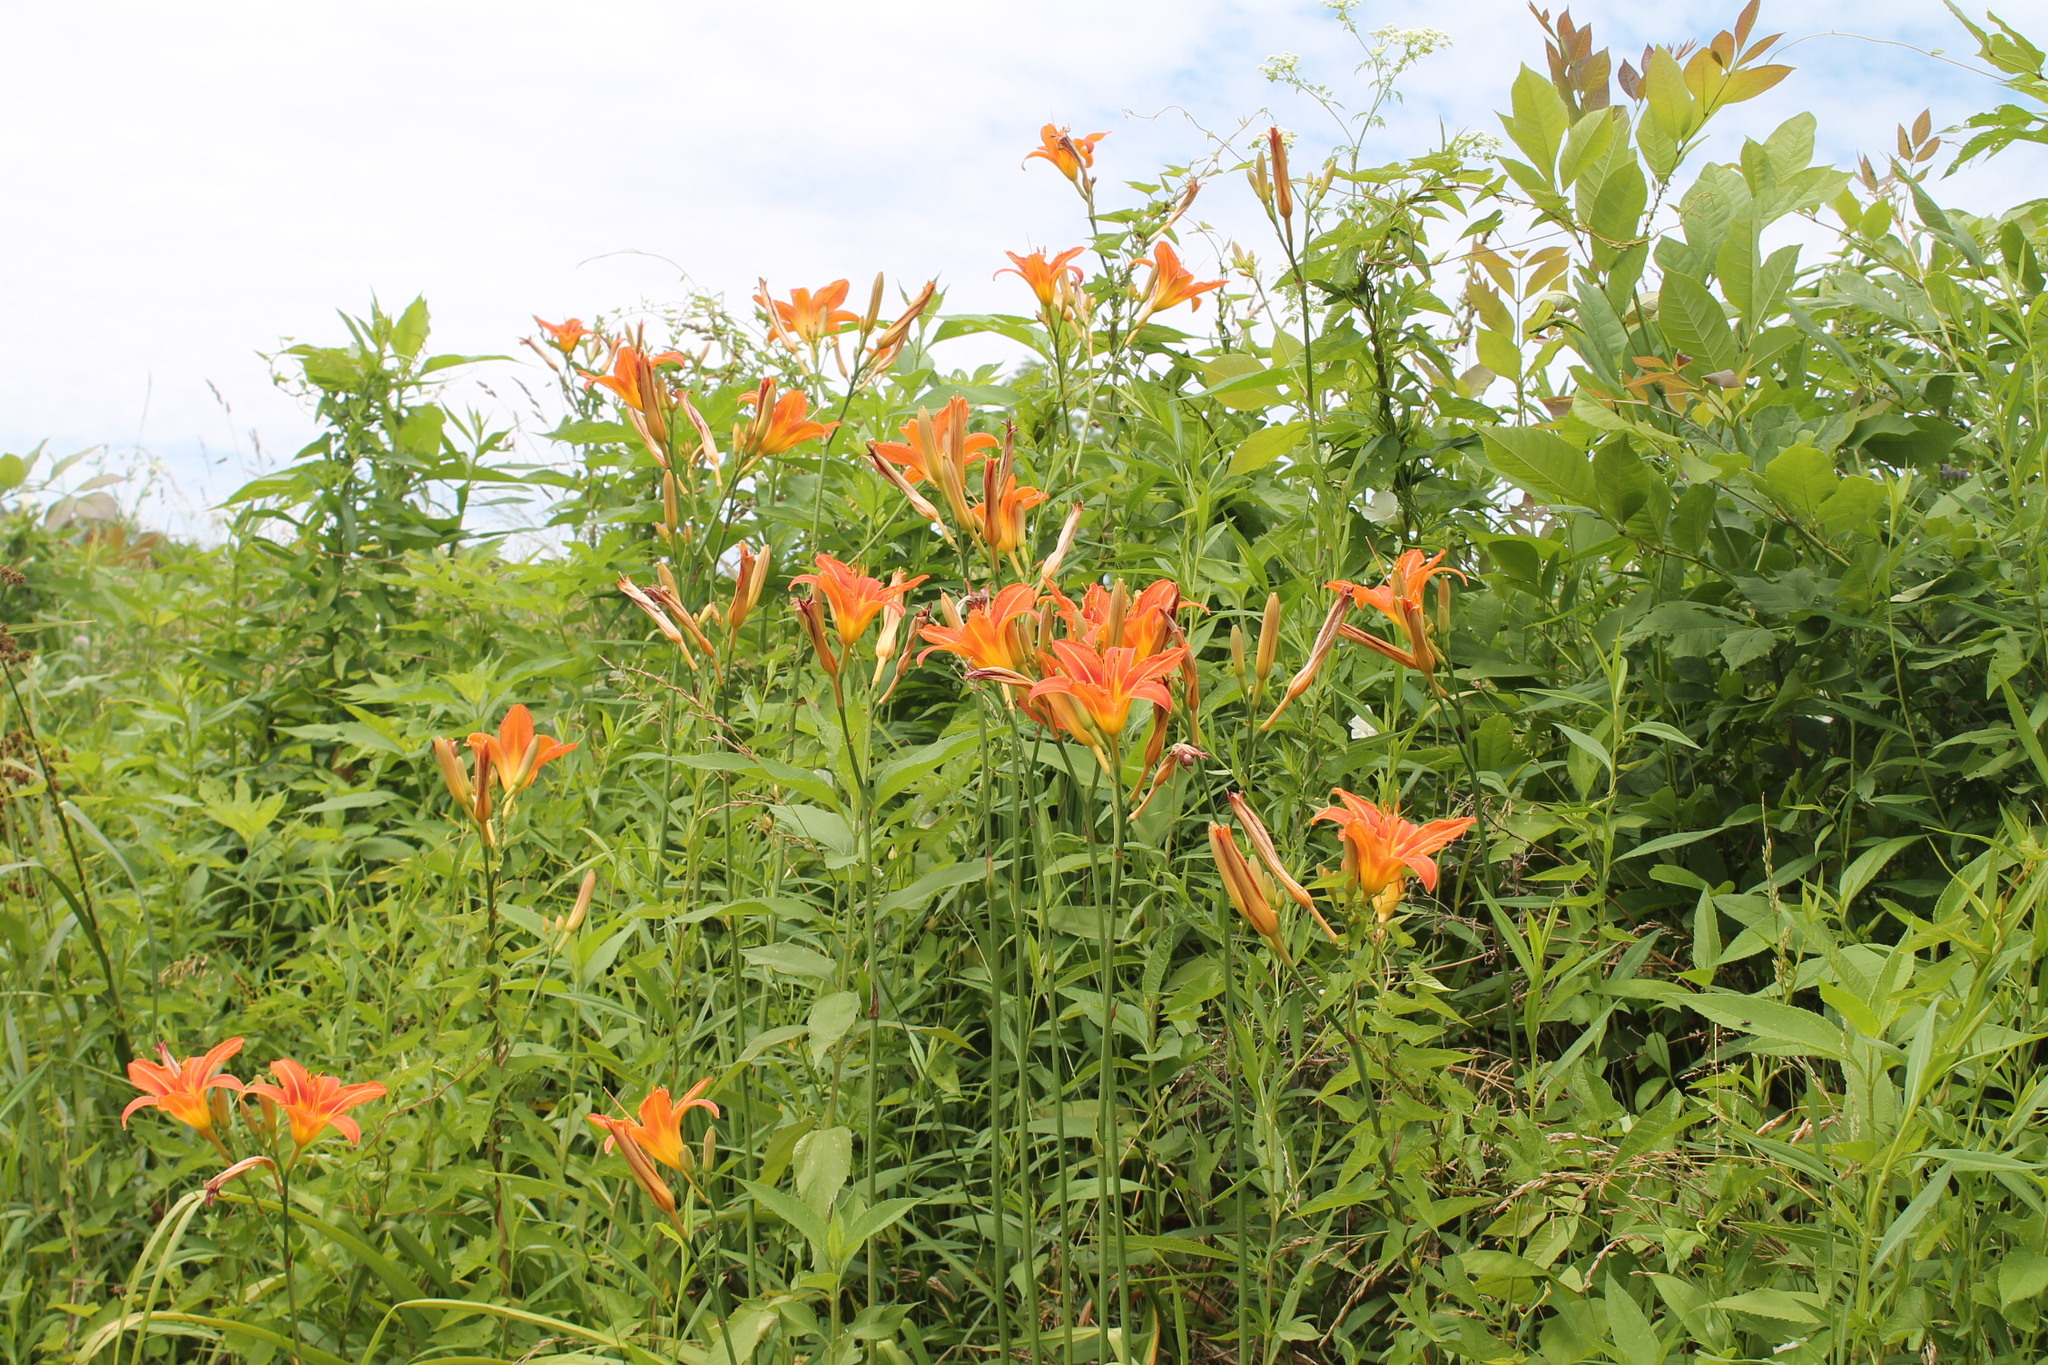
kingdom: Plantae
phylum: Tracheophyta
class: Liliopsida
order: Asparagales
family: Asphodelaceae
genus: Hemerocallis
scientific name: Hemerocallis fulva
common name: Orange day-lily
